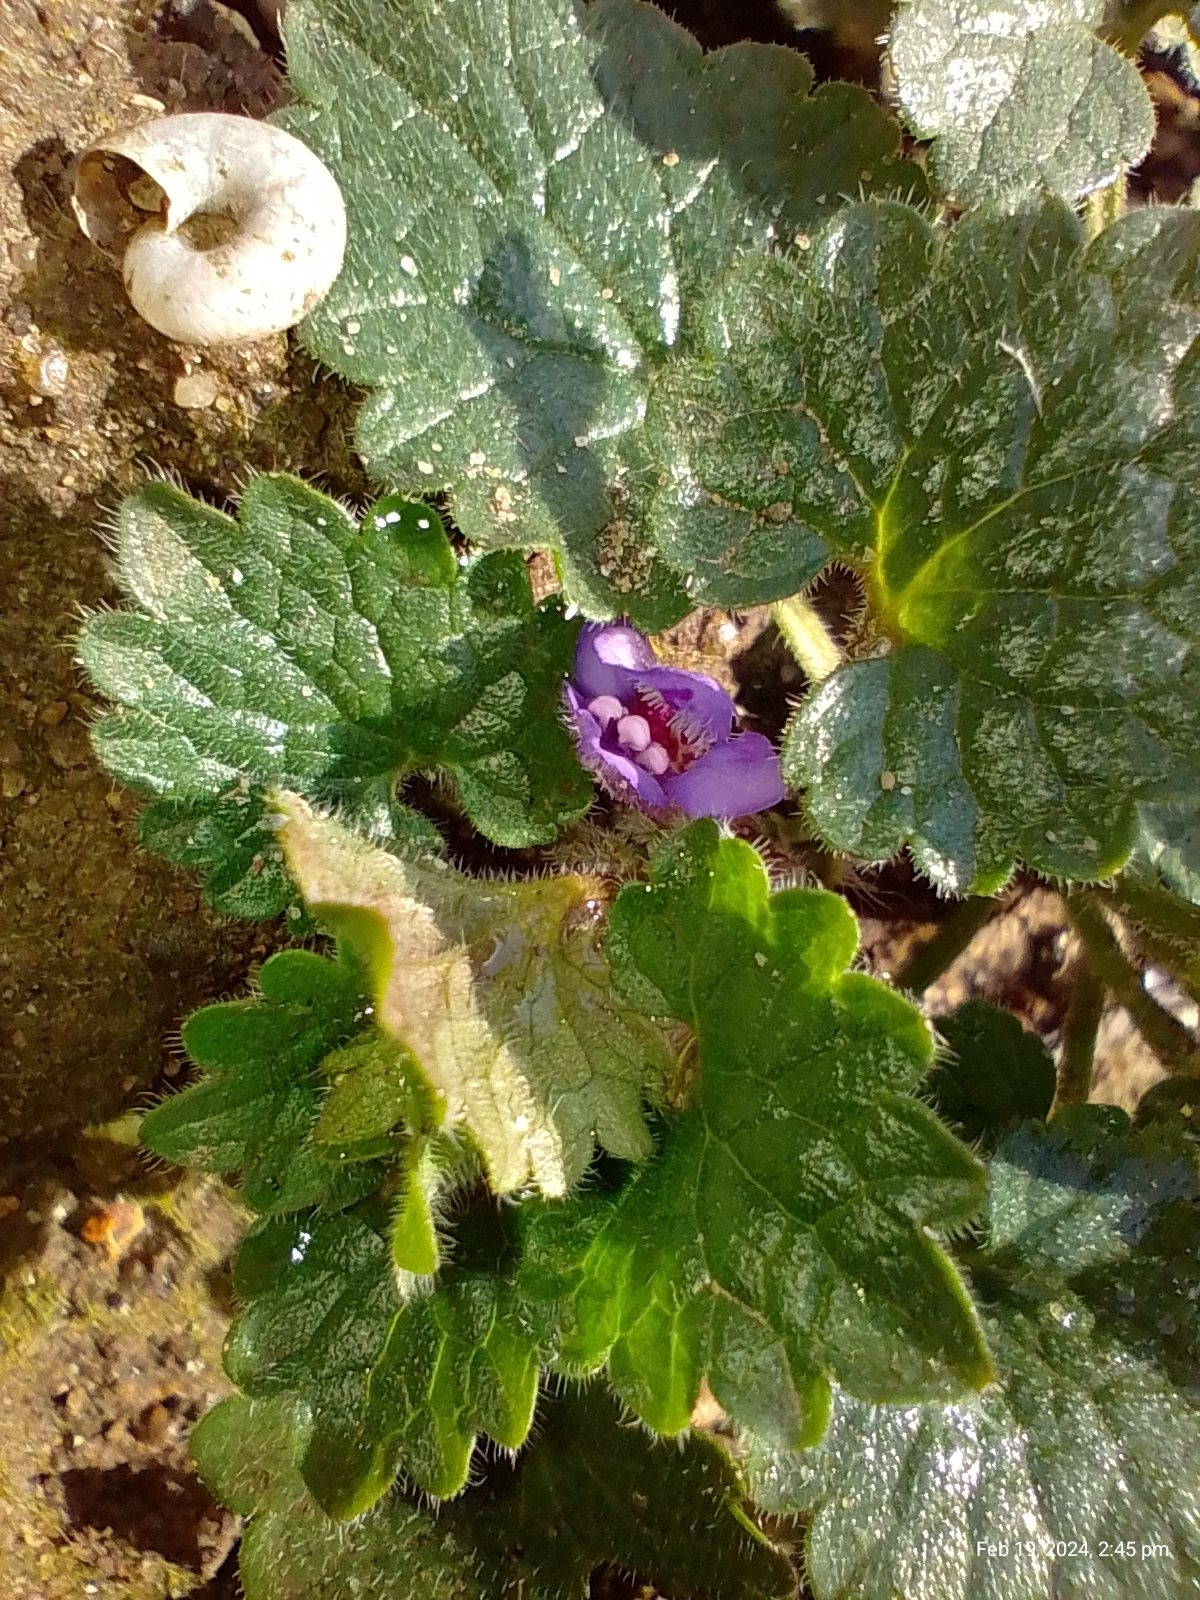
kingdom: Plantae
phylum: Tracheophyta
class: Magnoliopsida
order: Lamiales
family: Lamiaceae
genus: Glechoma
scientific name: Glechoma hederacea
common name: Ground ivy
